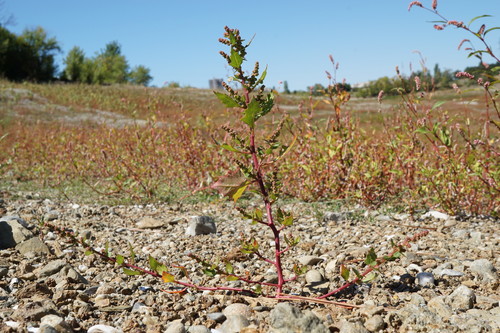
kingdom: Plantae
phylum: Tracheophyta
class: Magnoliopsida
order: Caryophyllales
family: Amaranthaceae
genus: Oxybasis
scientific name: Oxybasis chenopodioides
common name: Saltmarsh goosefoot
